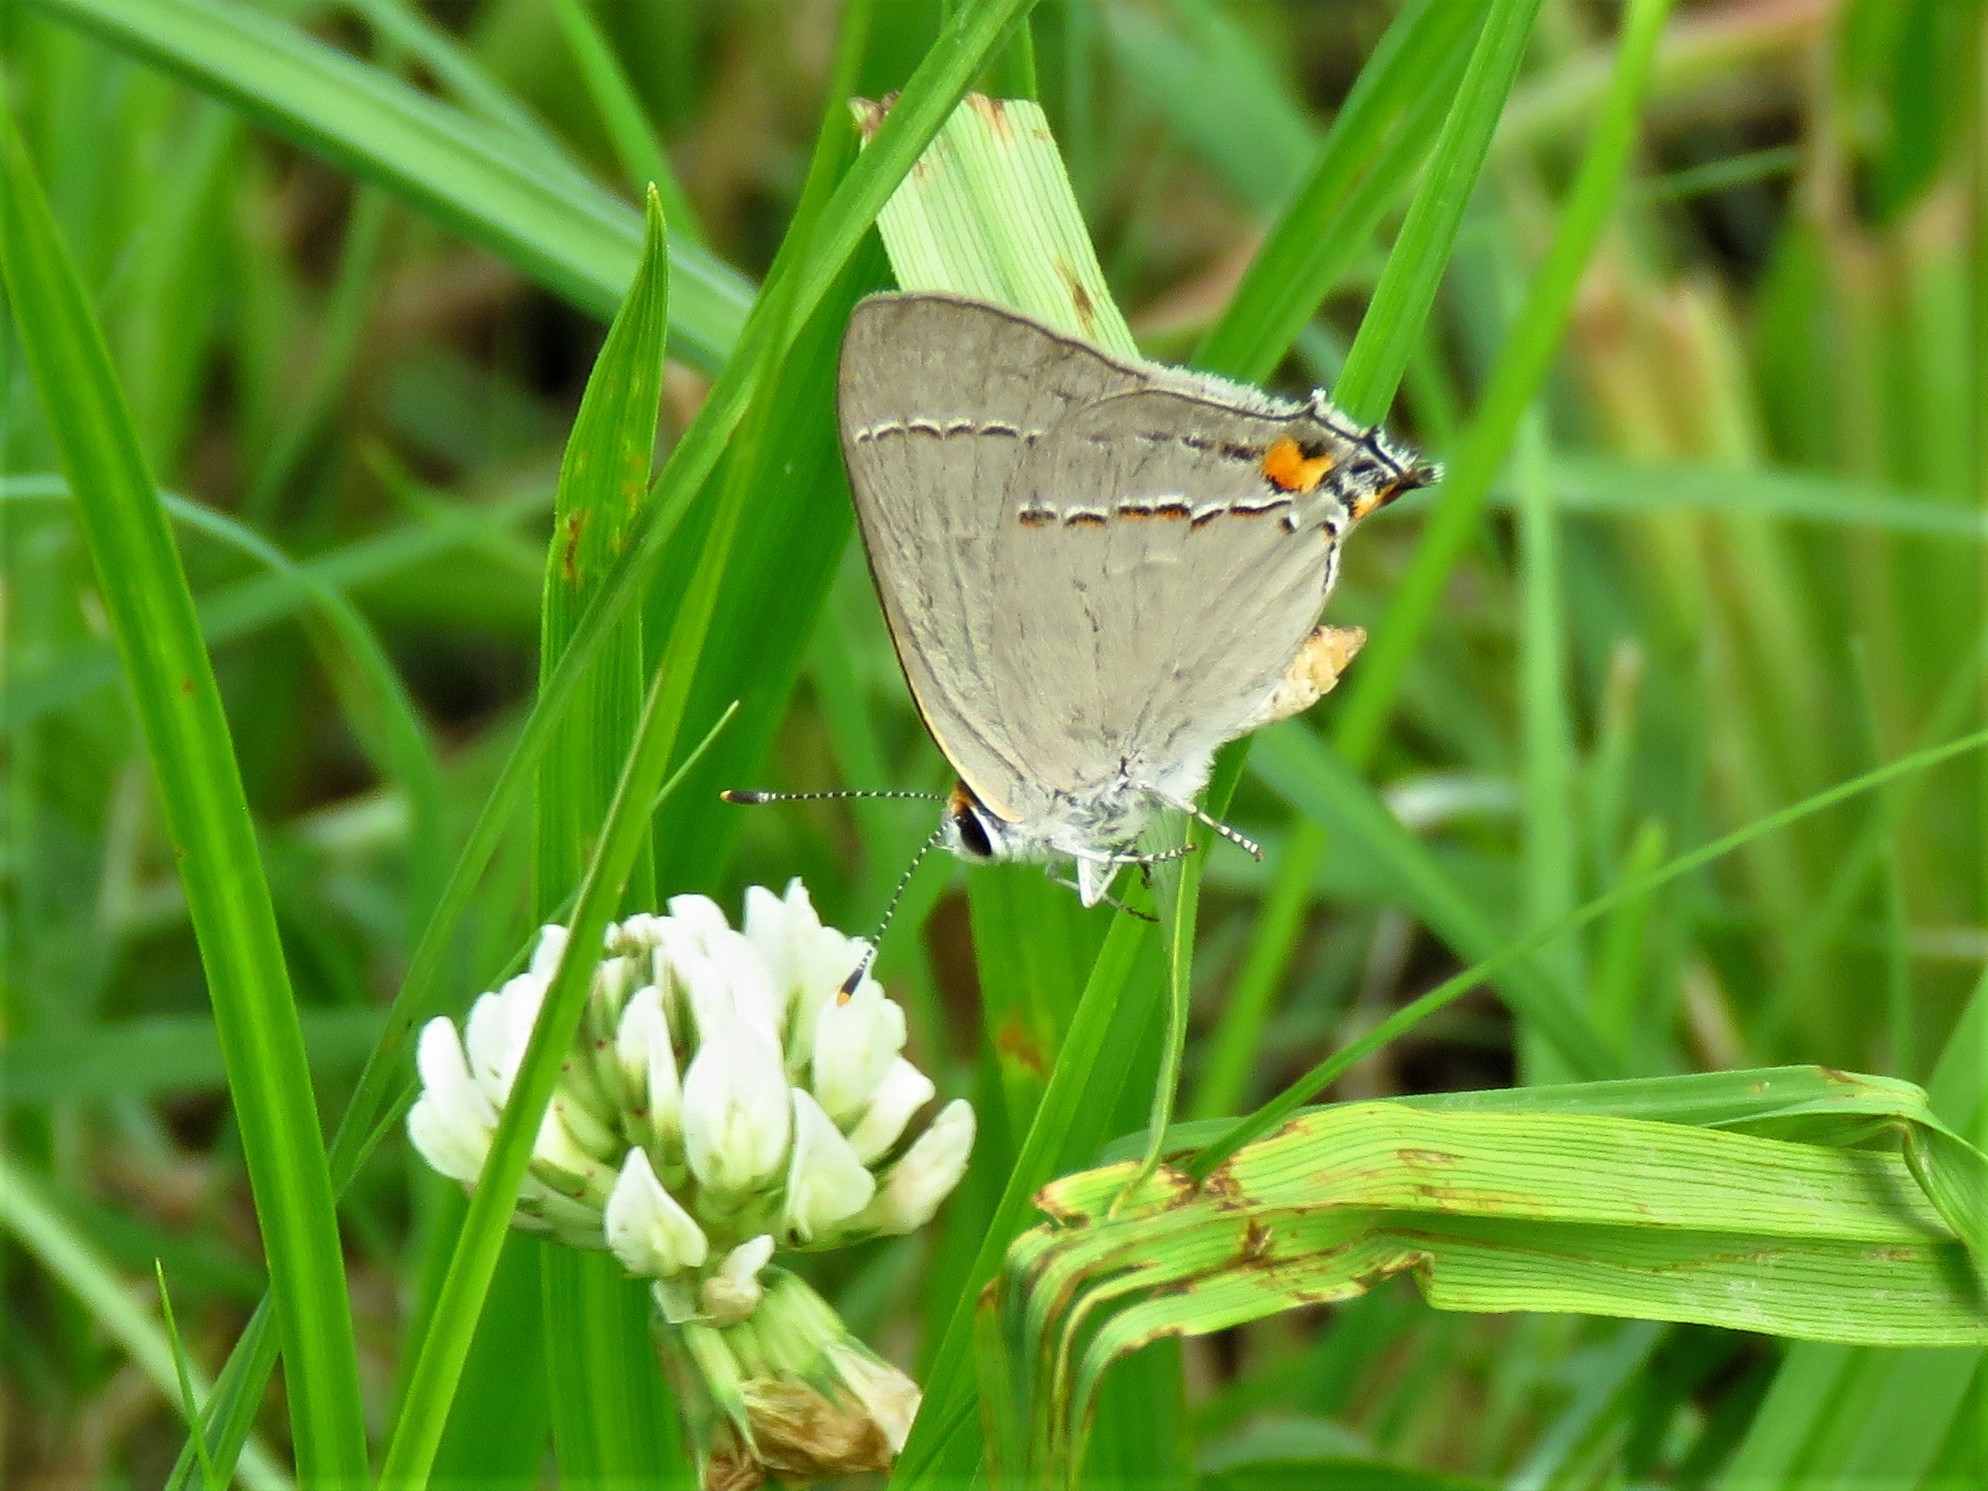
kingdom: Animalia
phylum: Arthropoda
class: Insecta
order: Lepidoptera
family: Lycaenidae
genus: Strymon
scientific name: Strymon melinus
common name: Gray hairstreak
